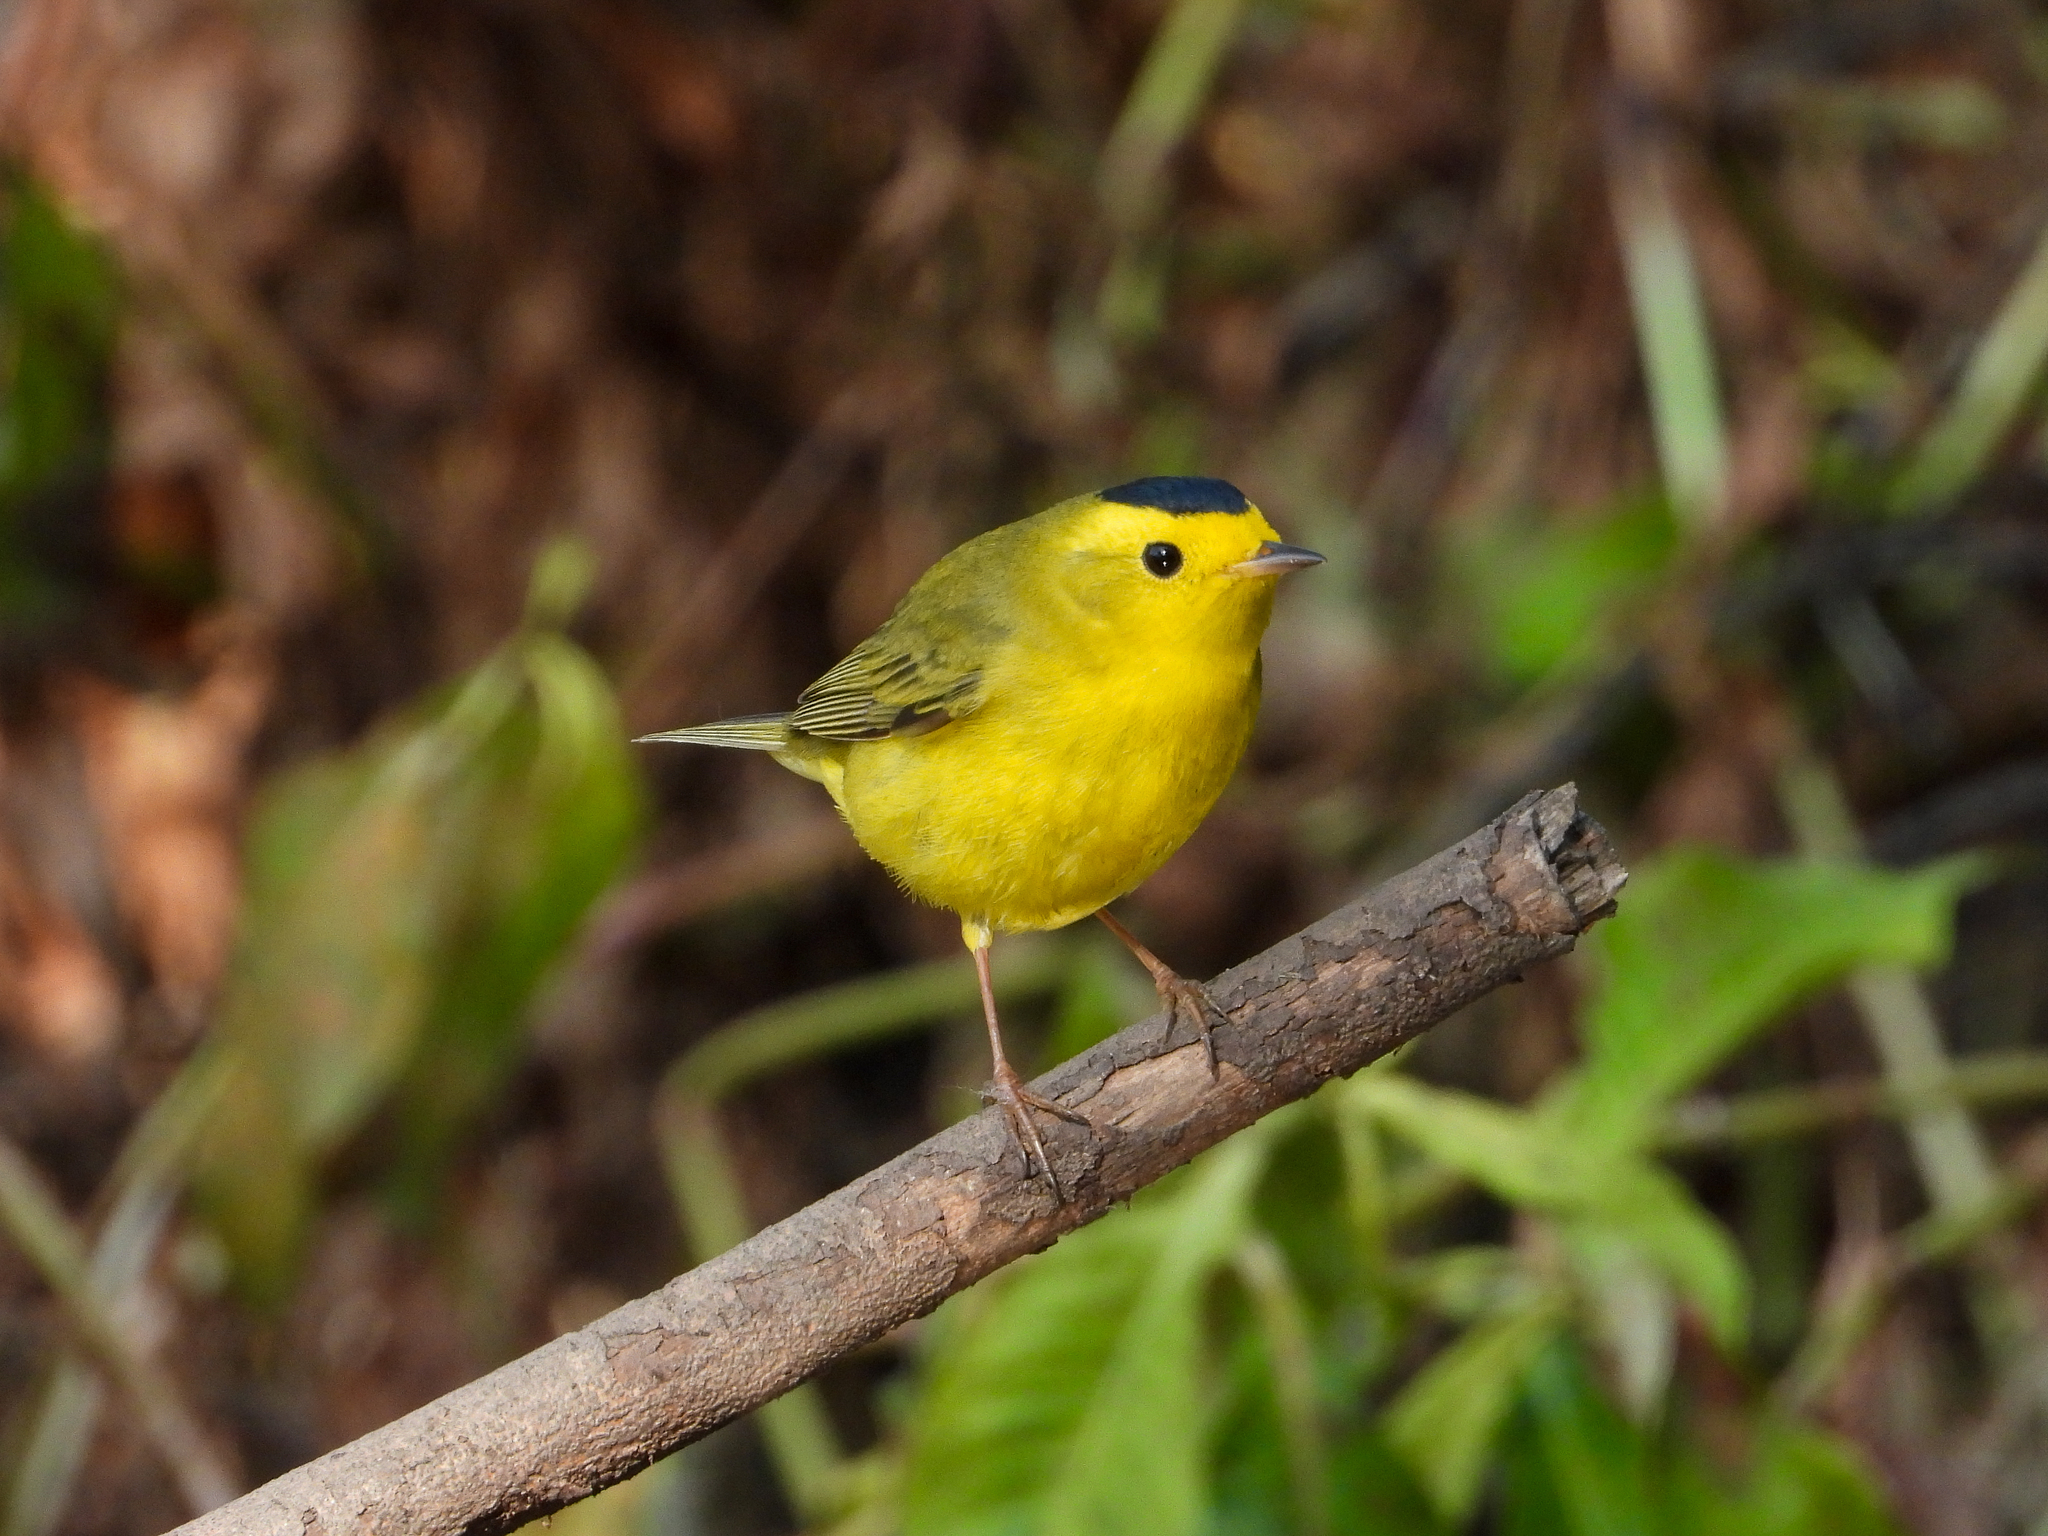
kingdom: Animalia
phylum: Chordata
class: Aves
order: Passeriformes
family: Parulidae
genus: Cardellina
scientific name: Cardellina pusilla
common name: Wilson's warbler
